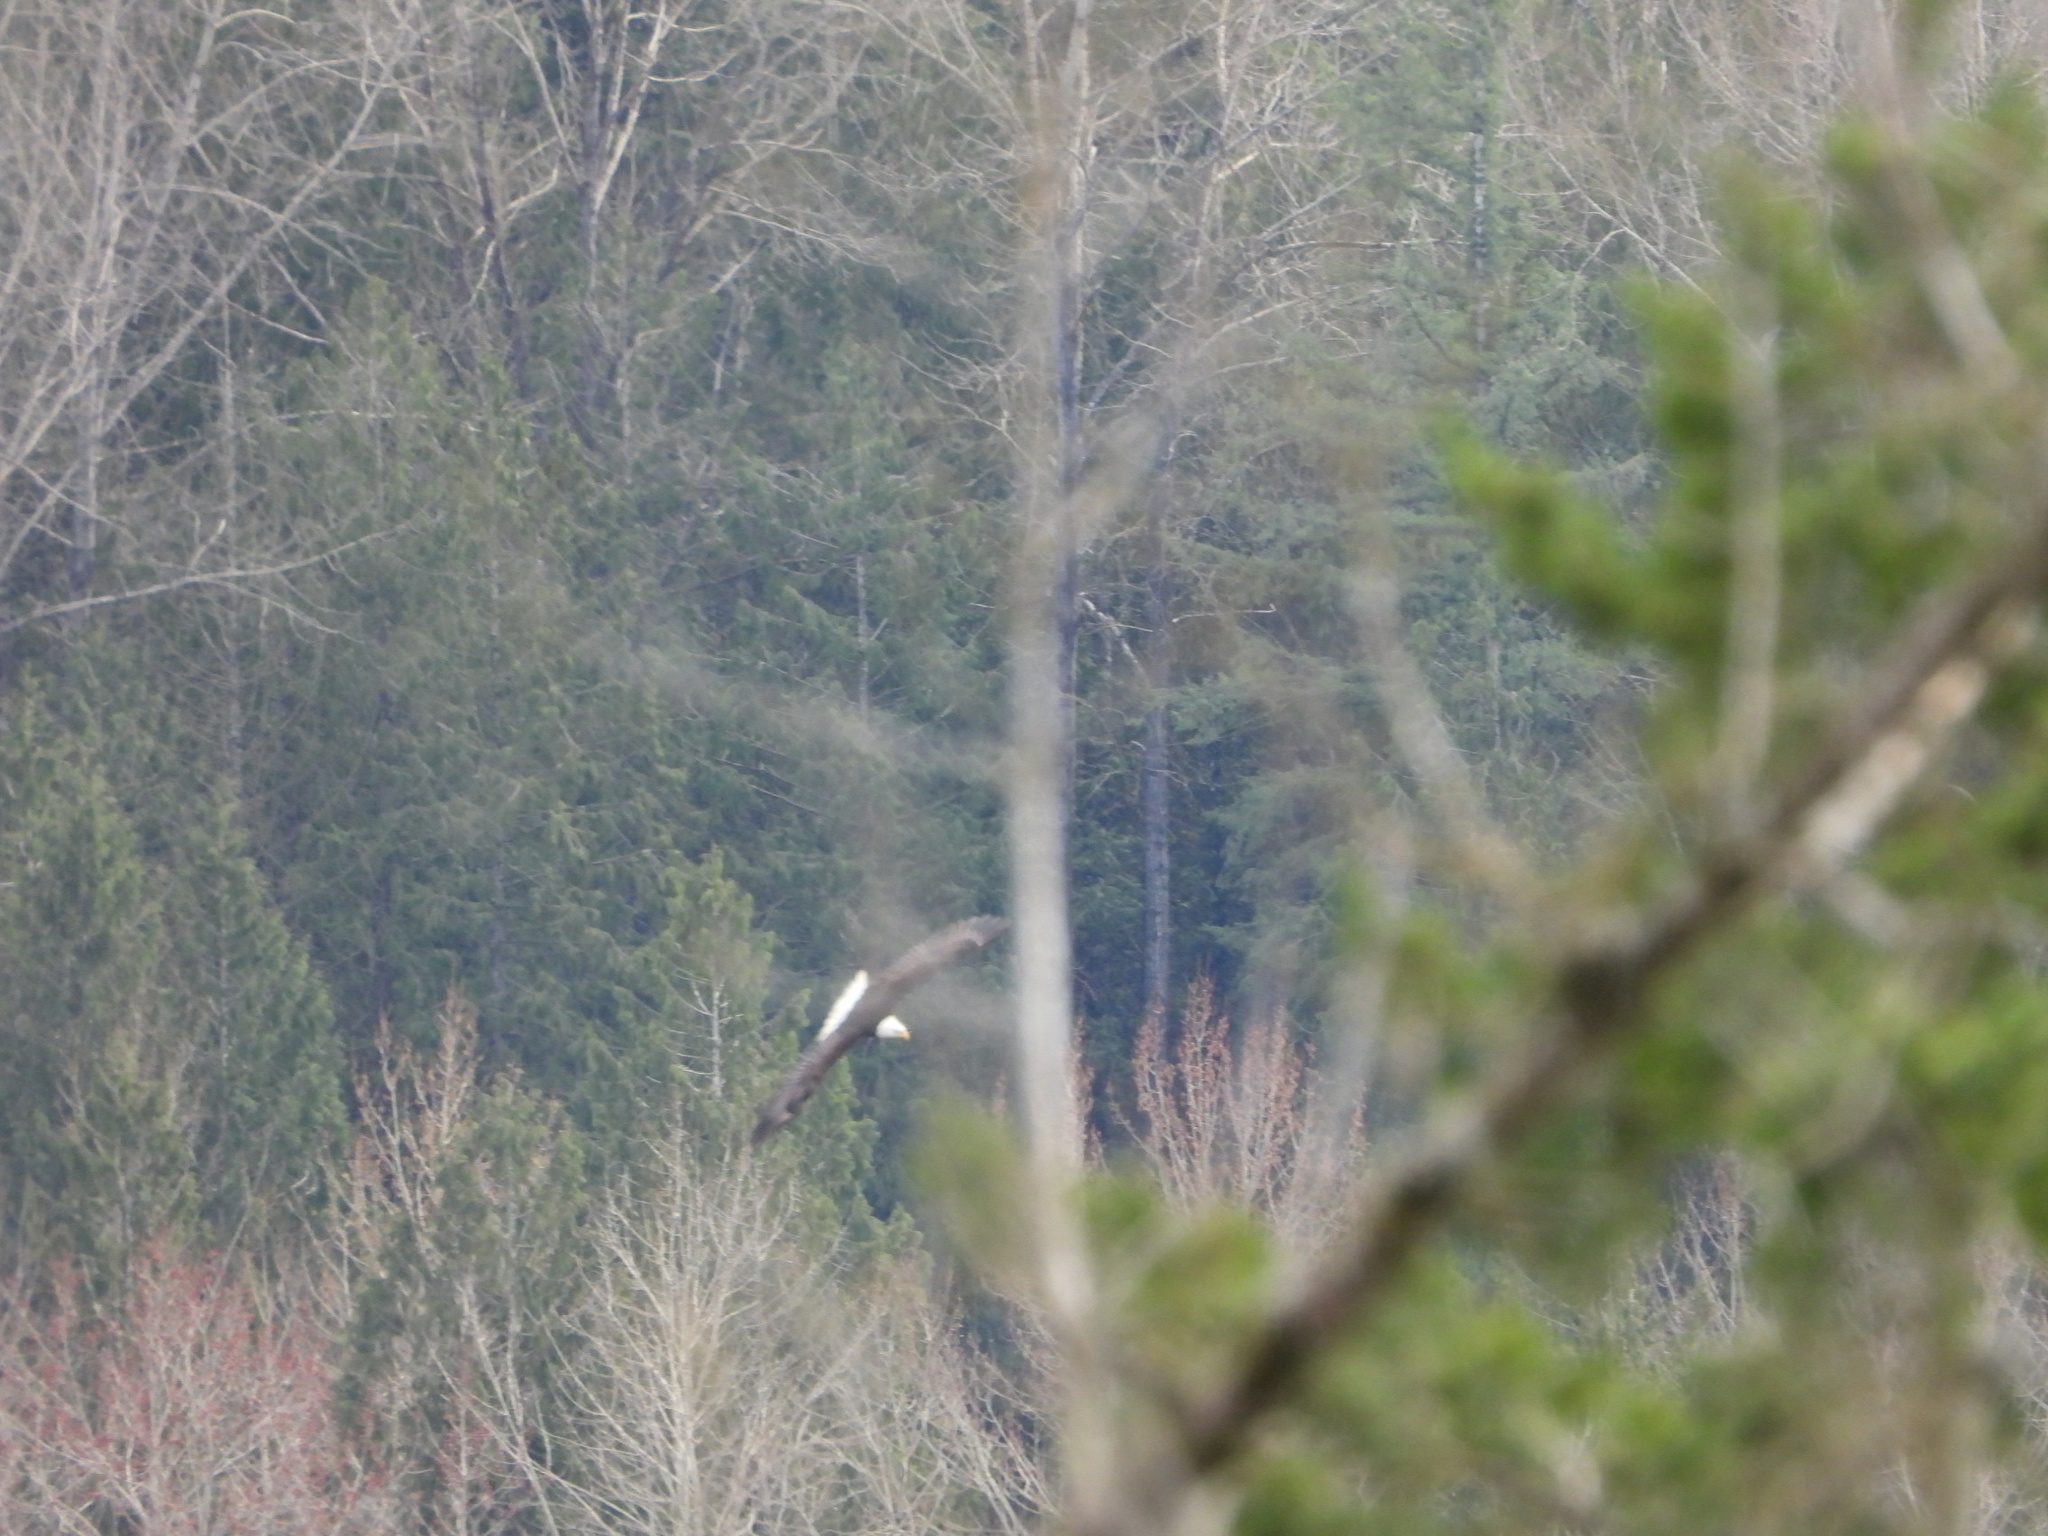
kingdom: Animalia
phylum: Chordata
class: Aves
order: Accipitriformes
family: Accipitridae
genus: Haliaeetus
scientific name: Haliaeetus leucocephalus
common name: Bald eagle
